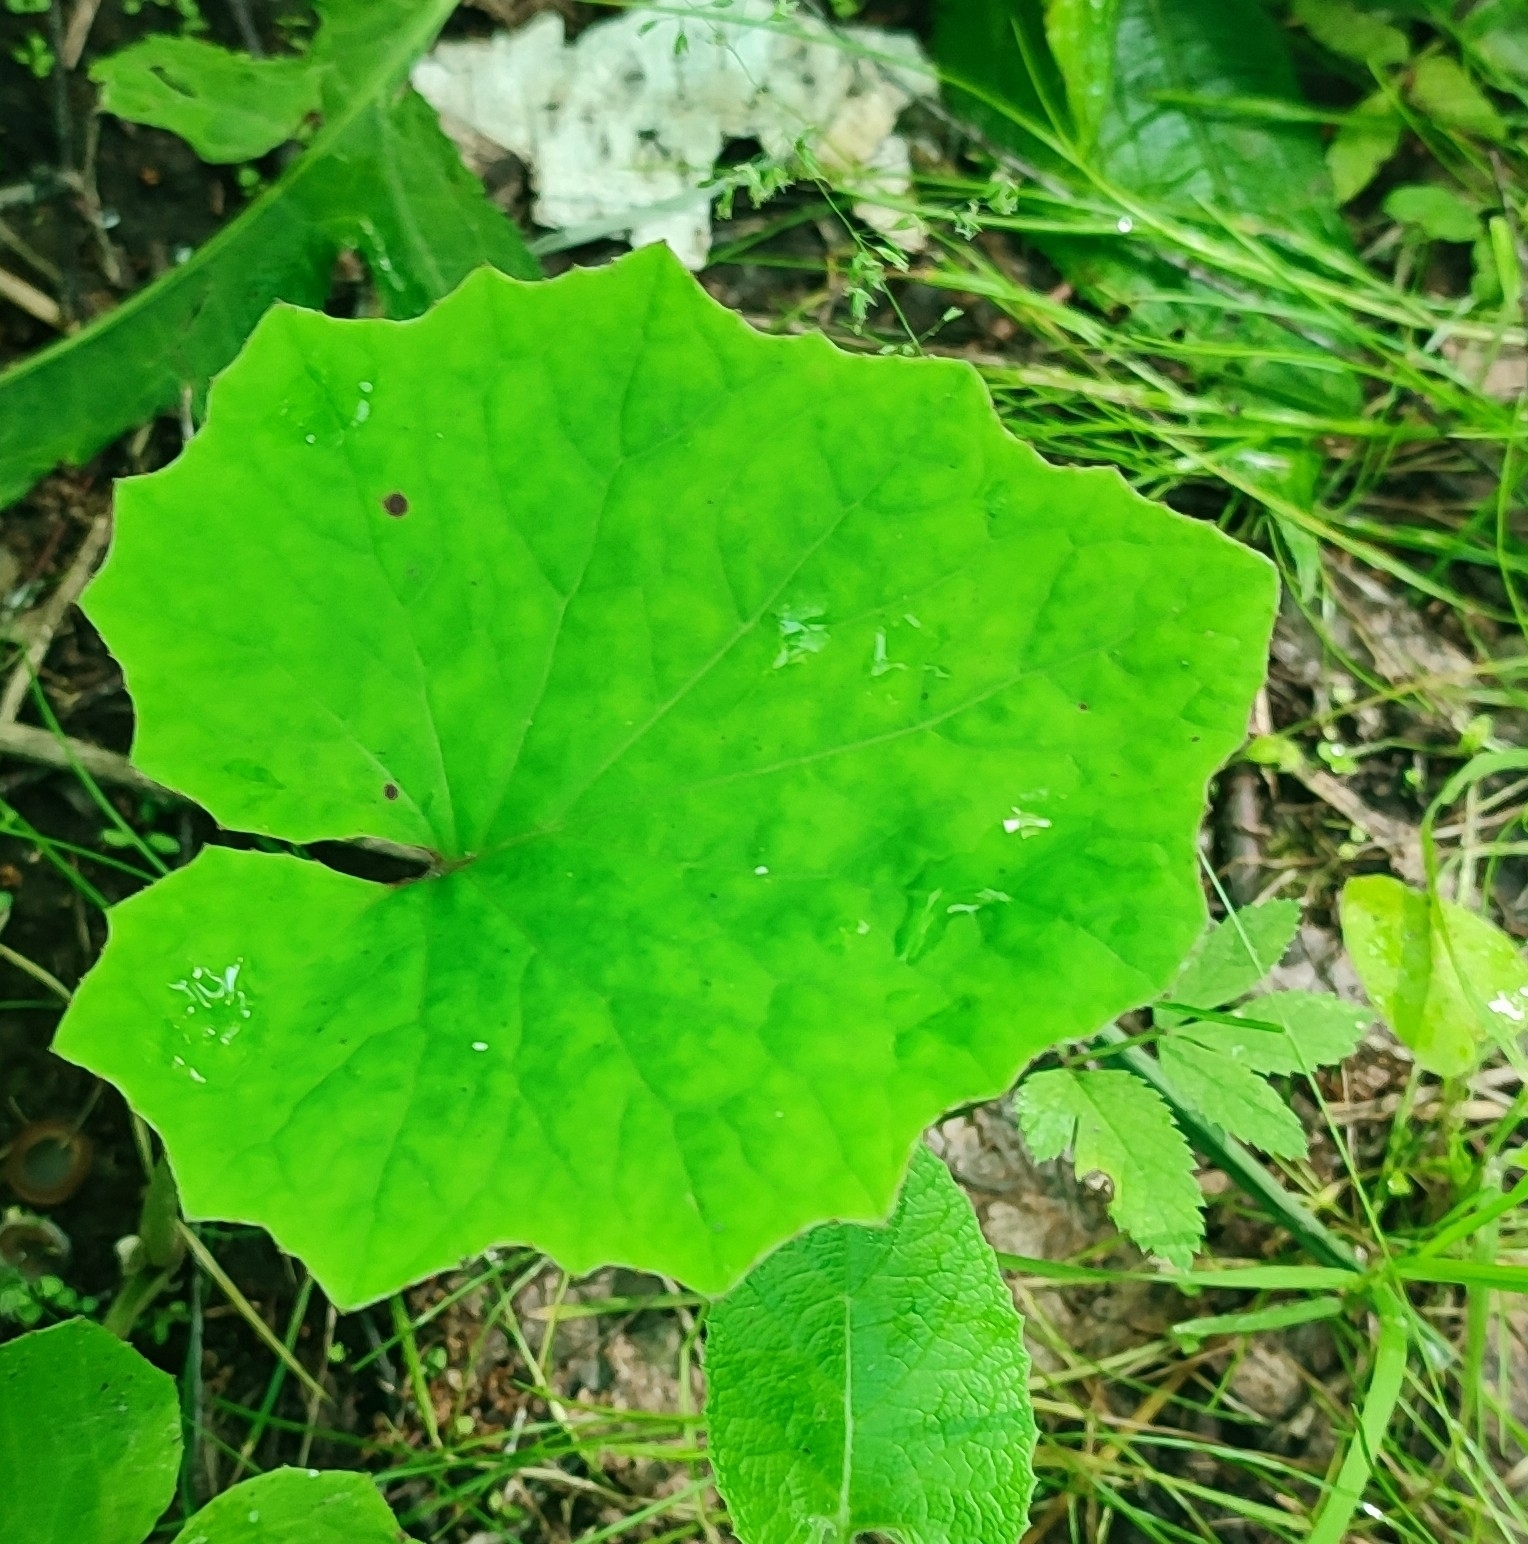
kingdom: Plantae
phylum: Tracheophyta
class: Magnoliopsida
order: Asterales
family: Asteraceae
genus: Tussilago
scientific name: Tussilago farfara
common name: Coltsfoot
